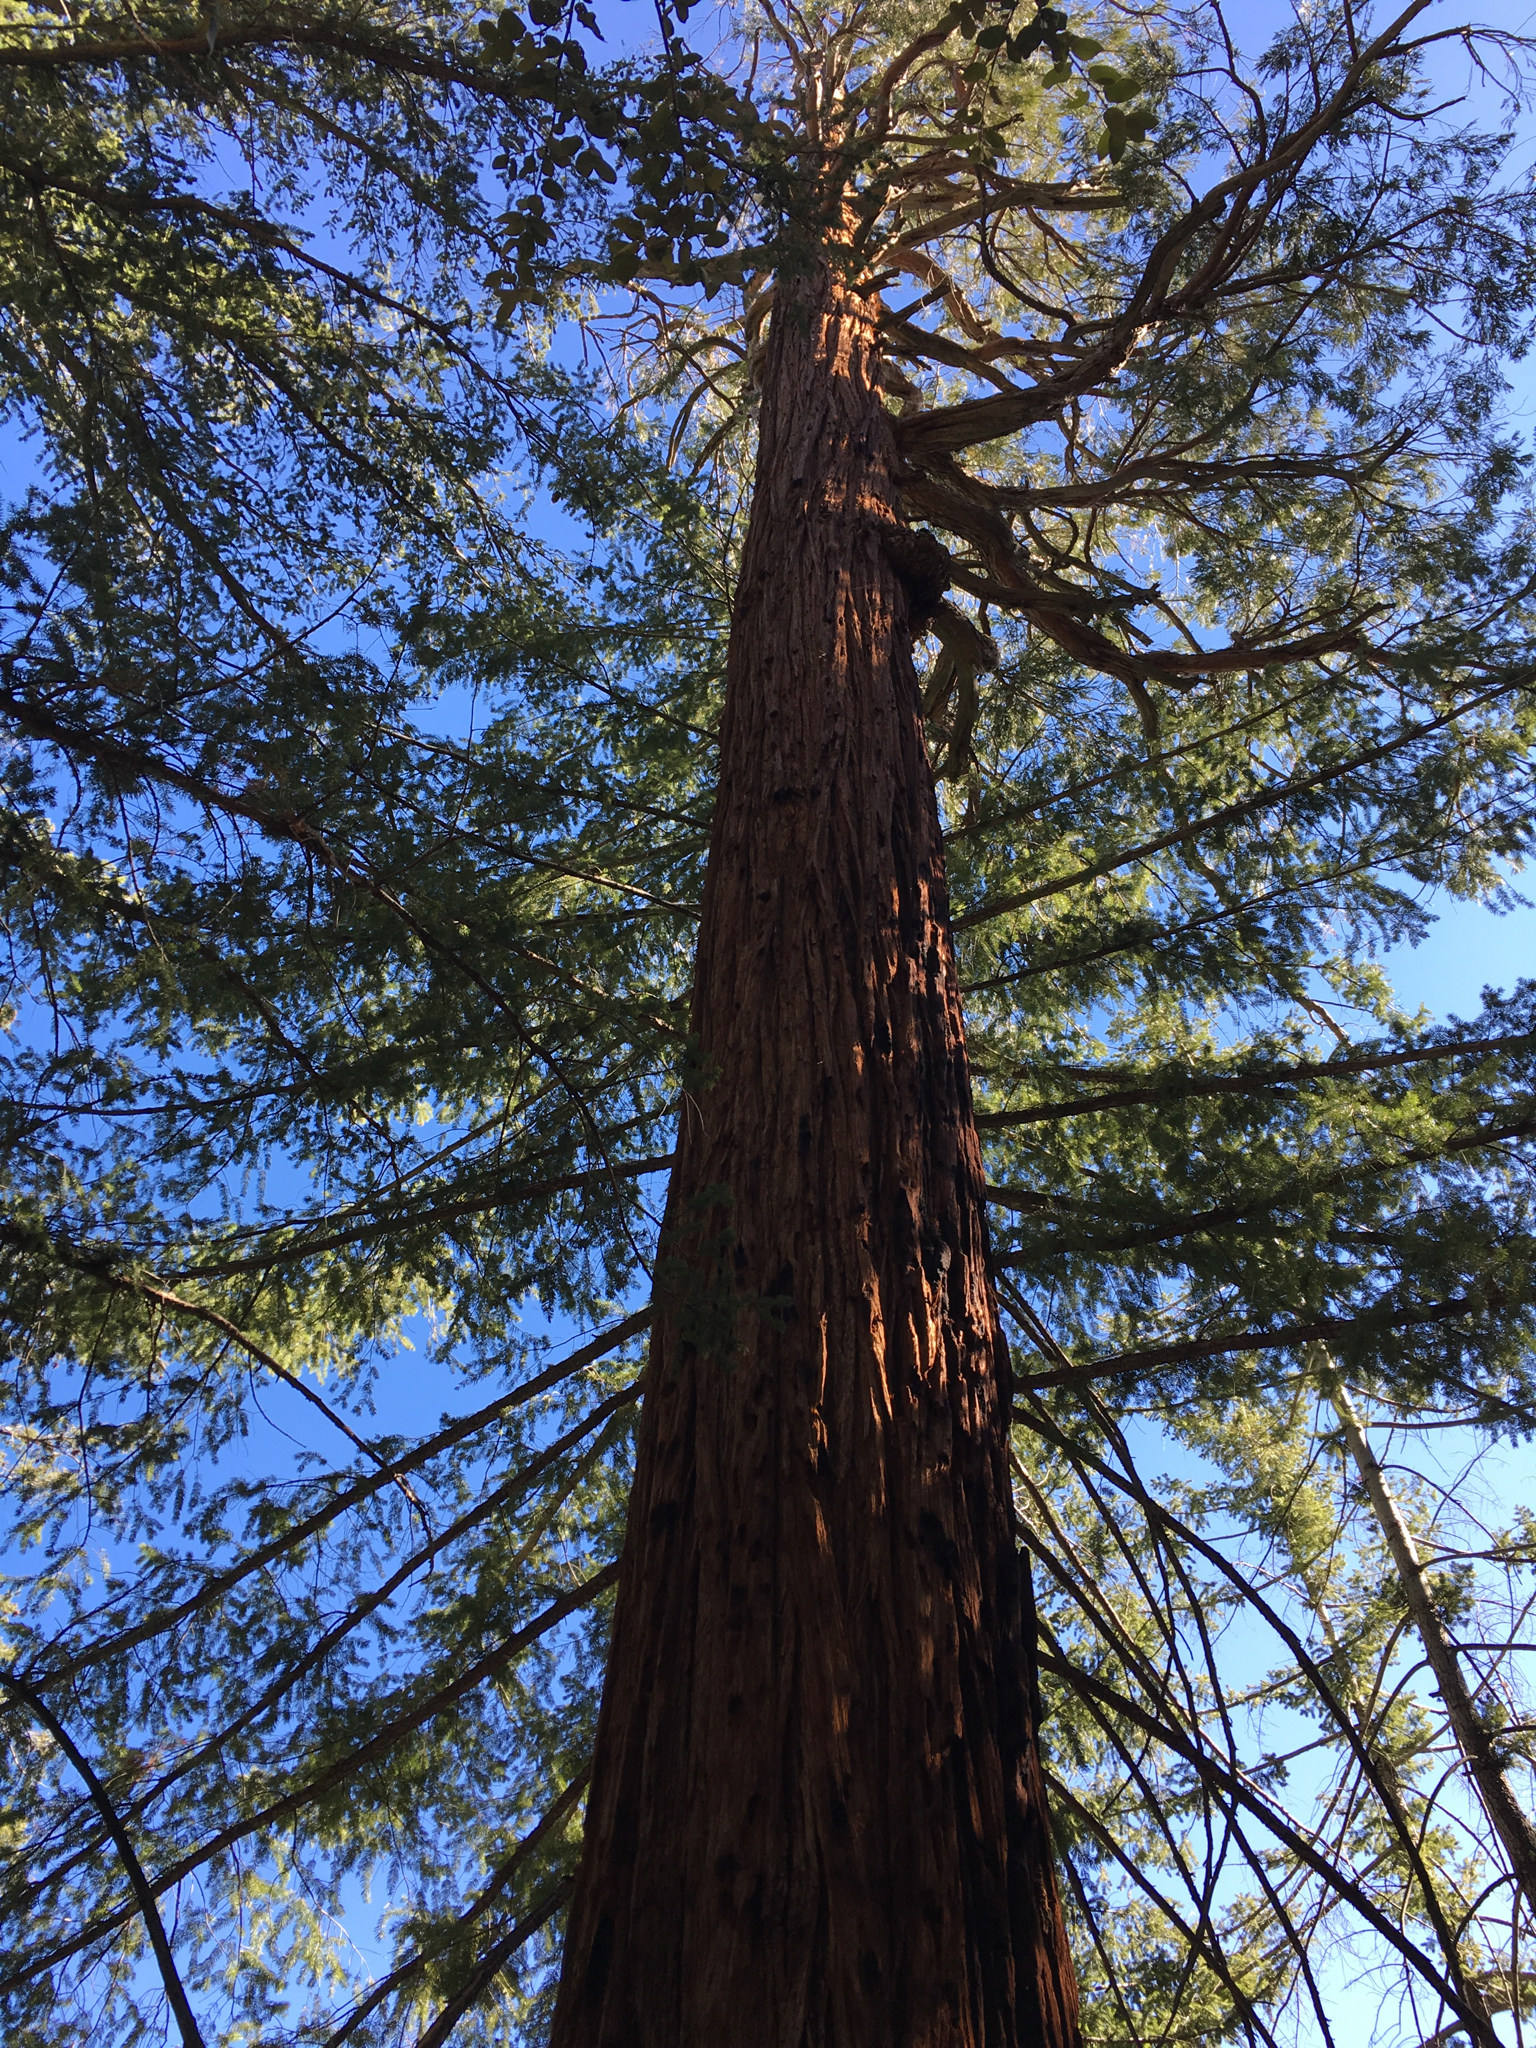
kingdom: Plantae
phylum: Tracheophyta
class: Pinopsida
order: Pinales
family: Cupressaceae
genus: Calocedrus
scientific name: Calocedrus decurrens
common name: Californian incense-cedar
